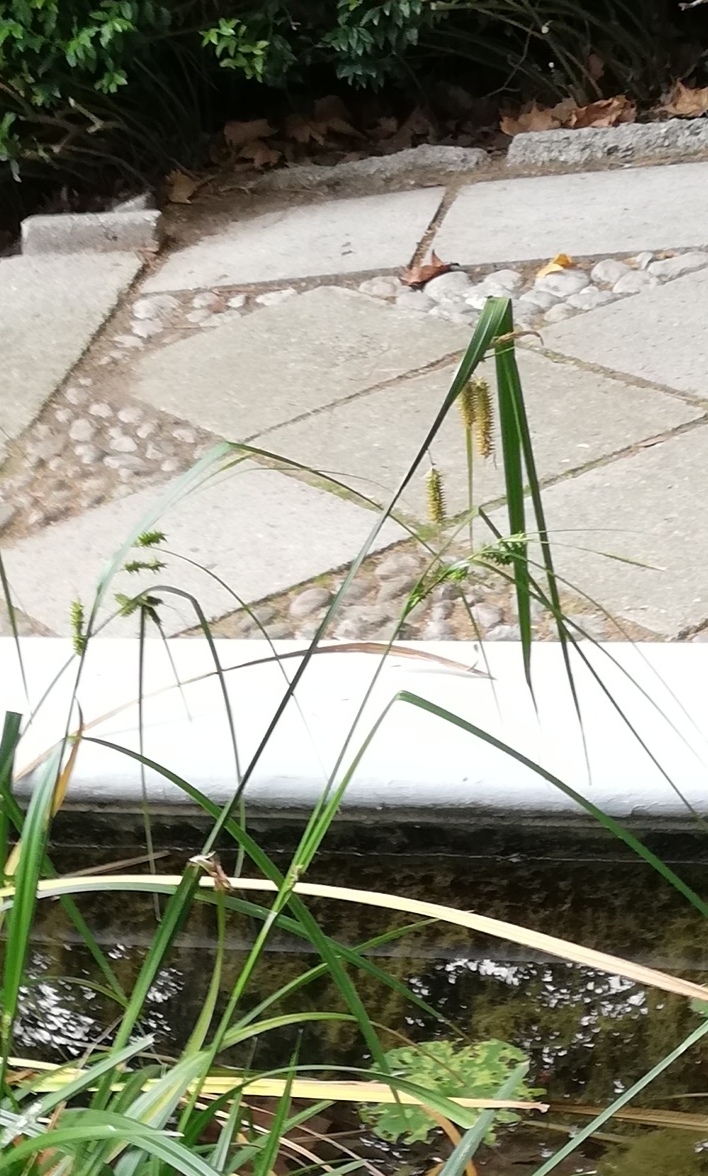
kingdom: Plantae
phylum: Tracheophyta
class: Liliopsida
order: Poales
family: Cyperaceae
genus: Carex
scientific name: Carex pendula
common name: Pendulous sedge
